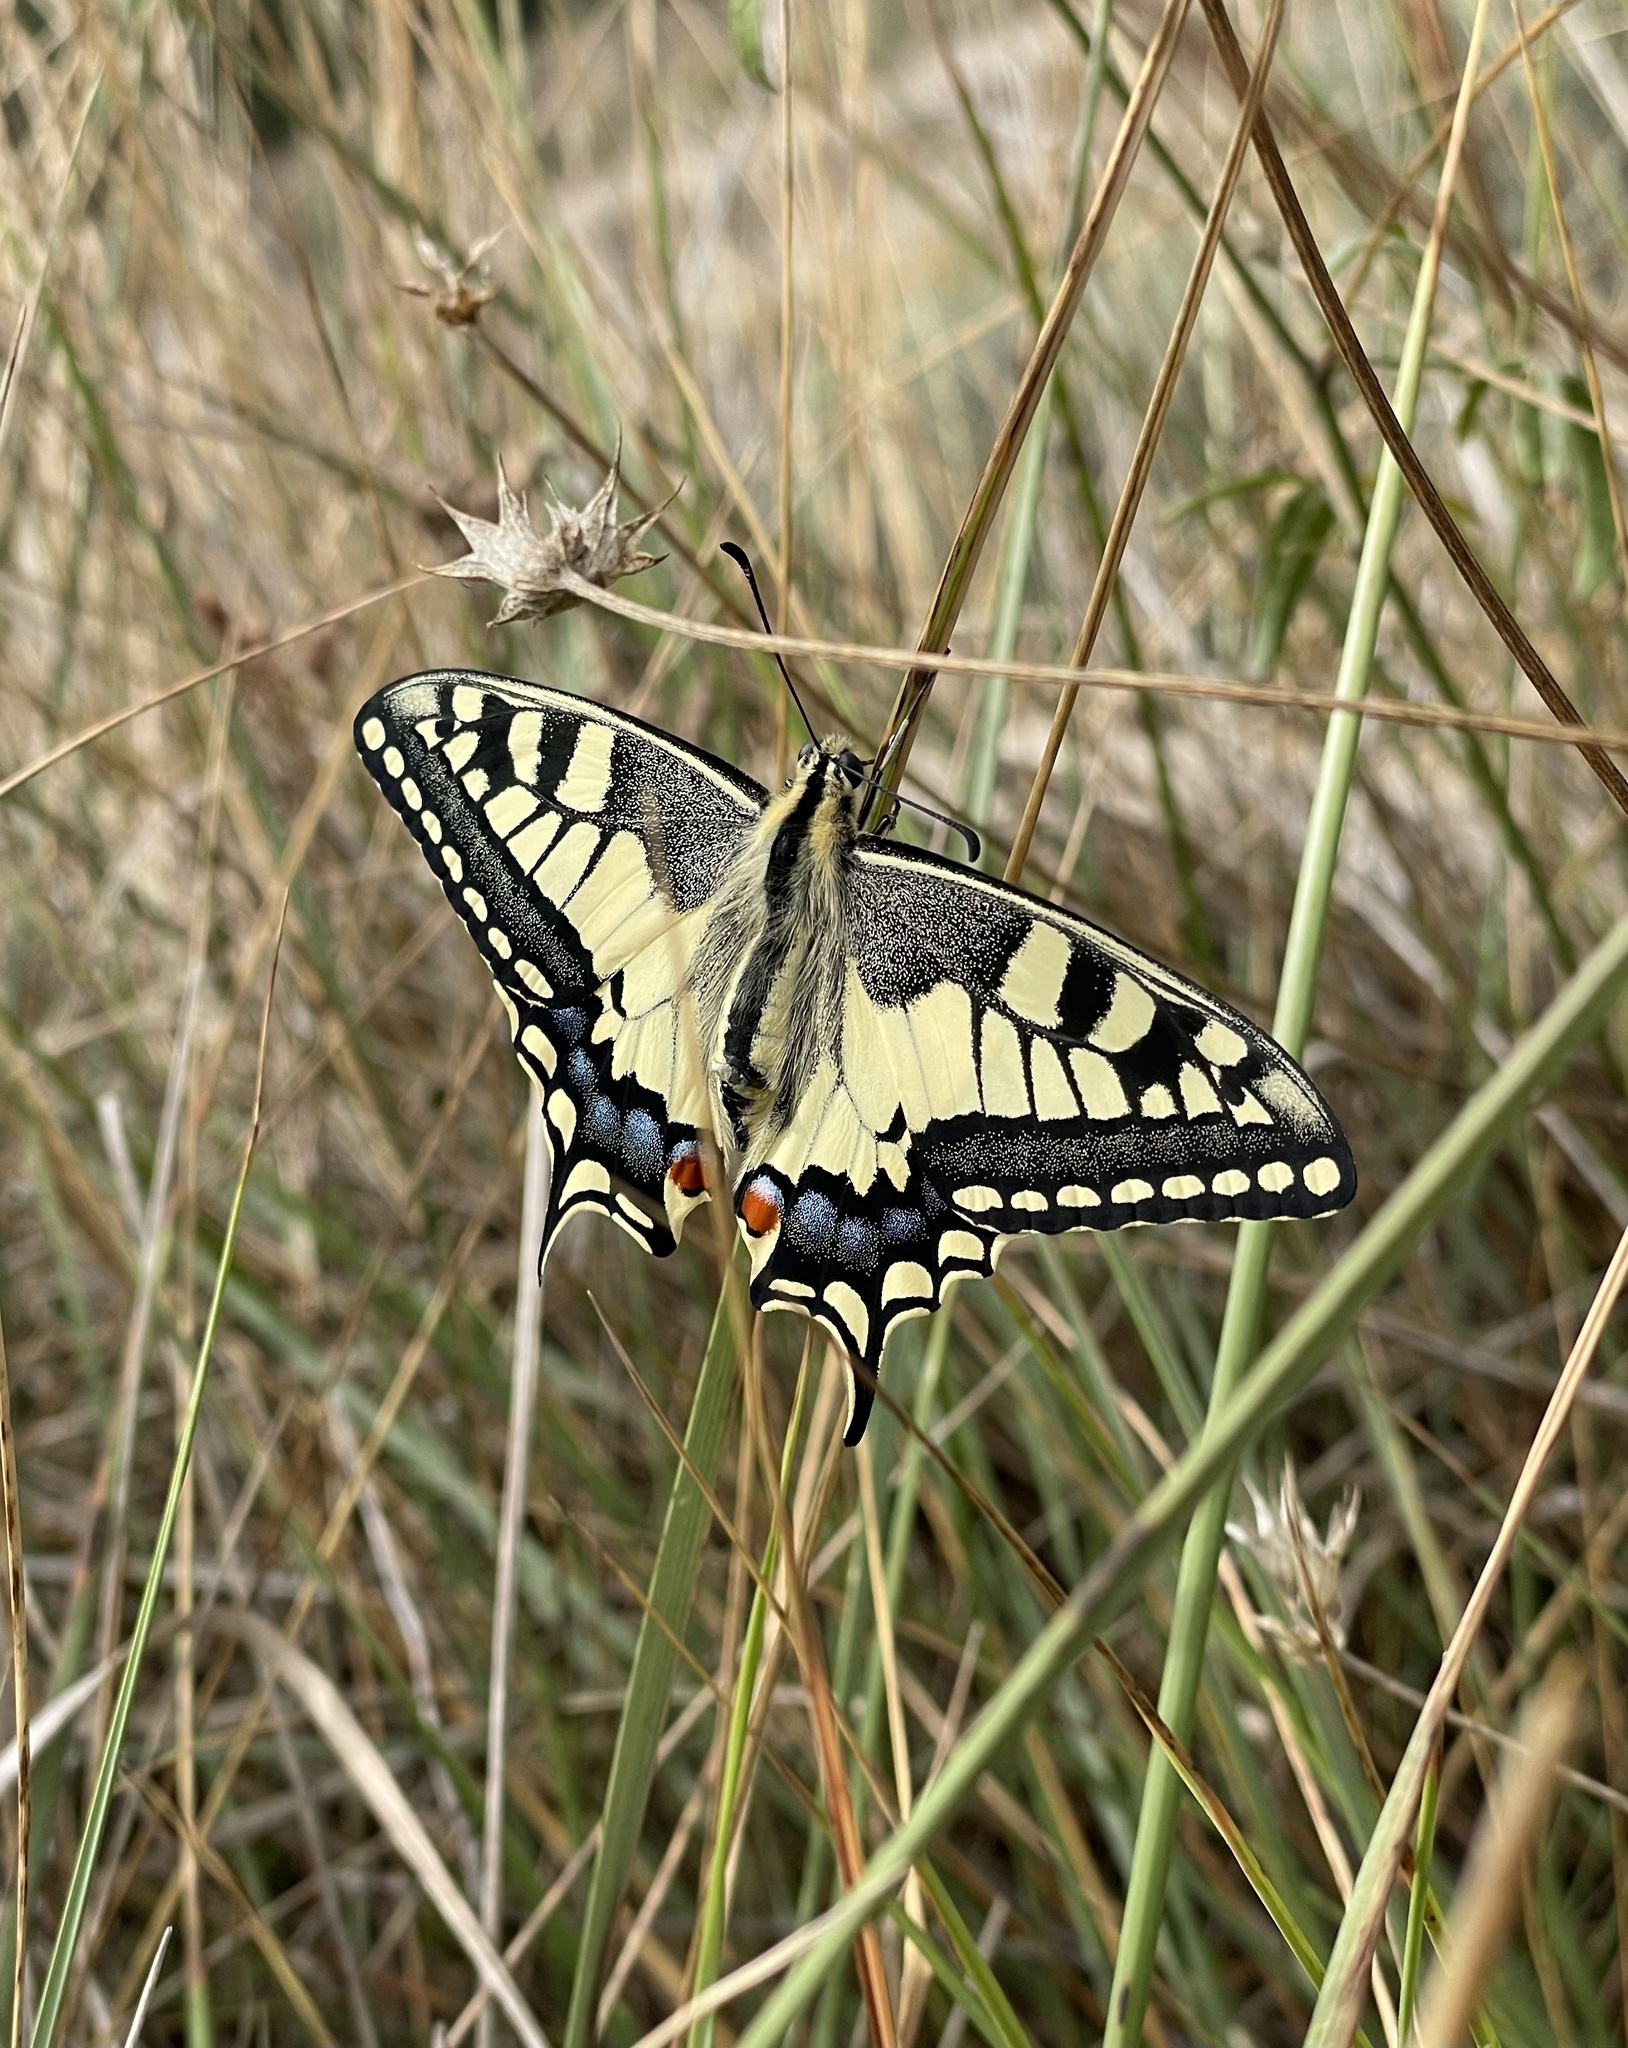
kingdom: Animalia
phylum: Arthropoda
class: Insecta
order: Lepidoptera
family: Papilionidae
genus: Papilio
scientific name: Papilio machaon
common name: Swallowtail
